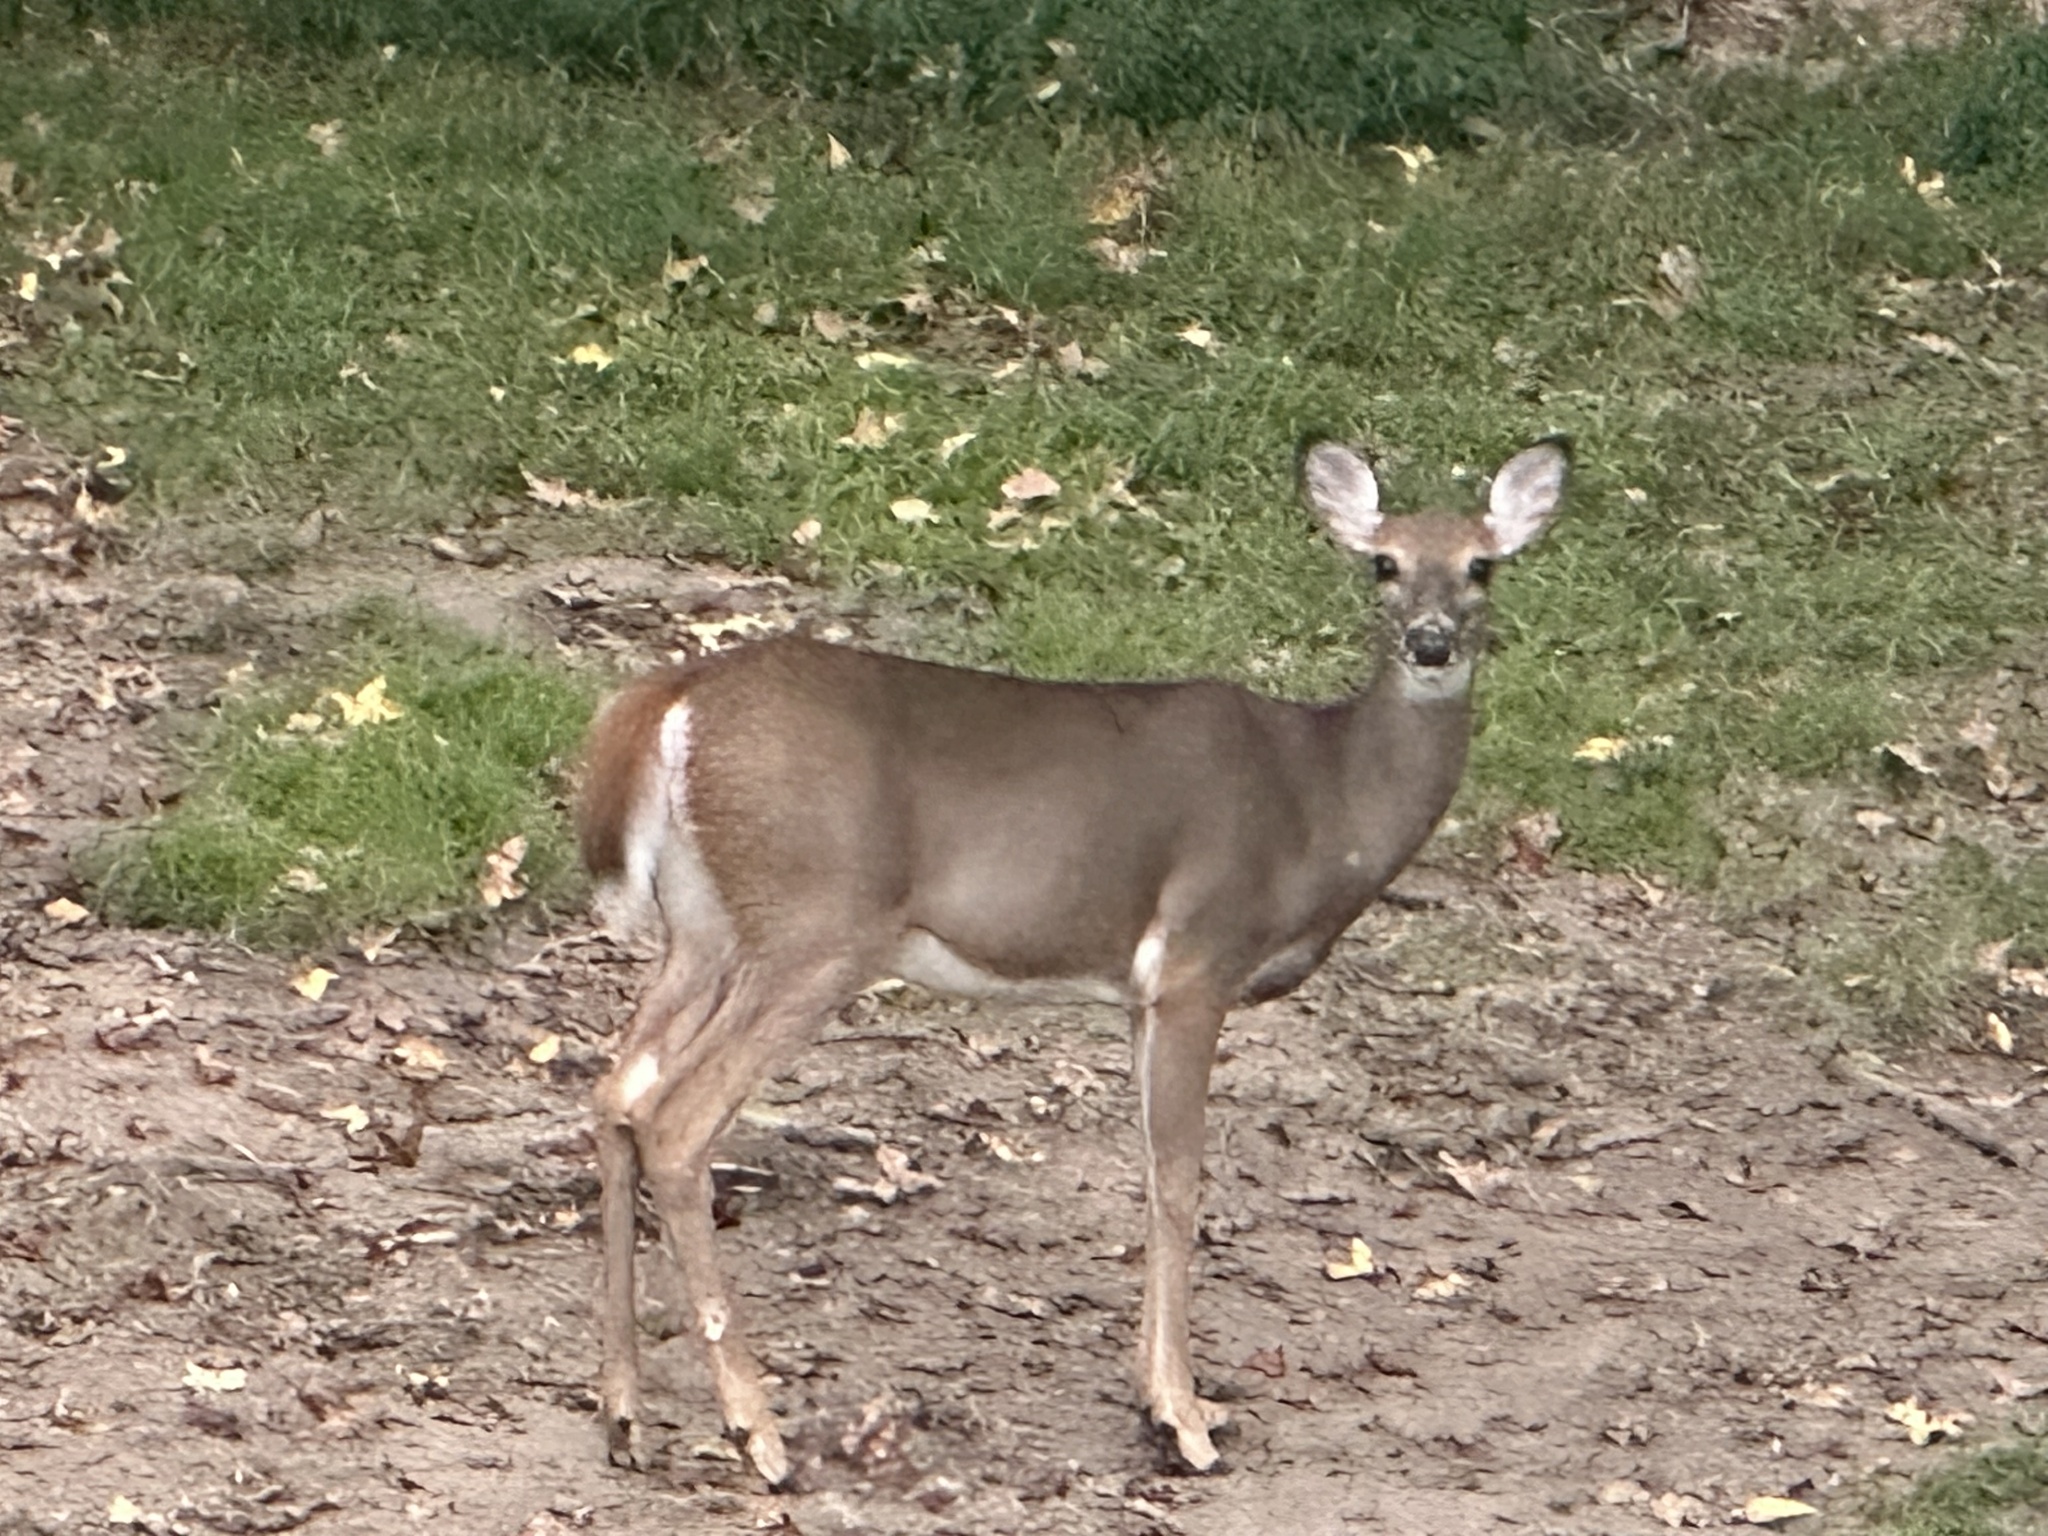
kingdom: Animalia
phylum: Chordata
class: Mammalia
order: Artiodactyla
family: Cervidae
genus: Odocoileus
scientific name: Odocoileus virginianus
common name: White-tailed deer
